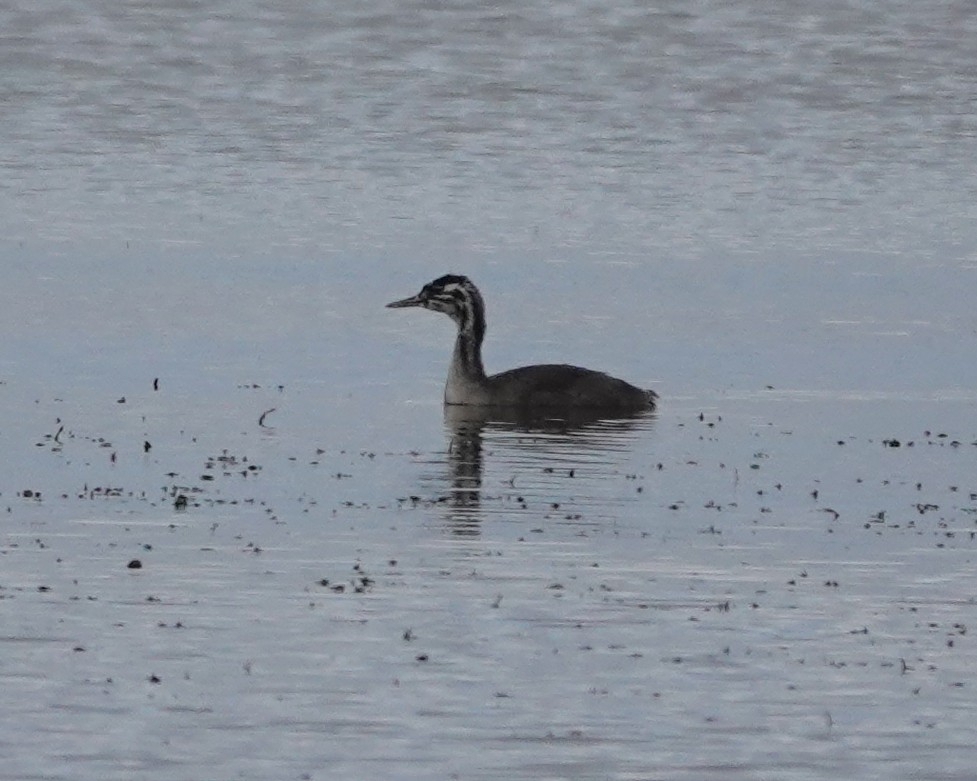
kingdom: Animalia
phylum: Chordata
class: Aves
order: Podicipediformes
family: Podicipedidae
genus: Podiceps
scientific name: Podiceps cristatus
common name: Great crested grebe
